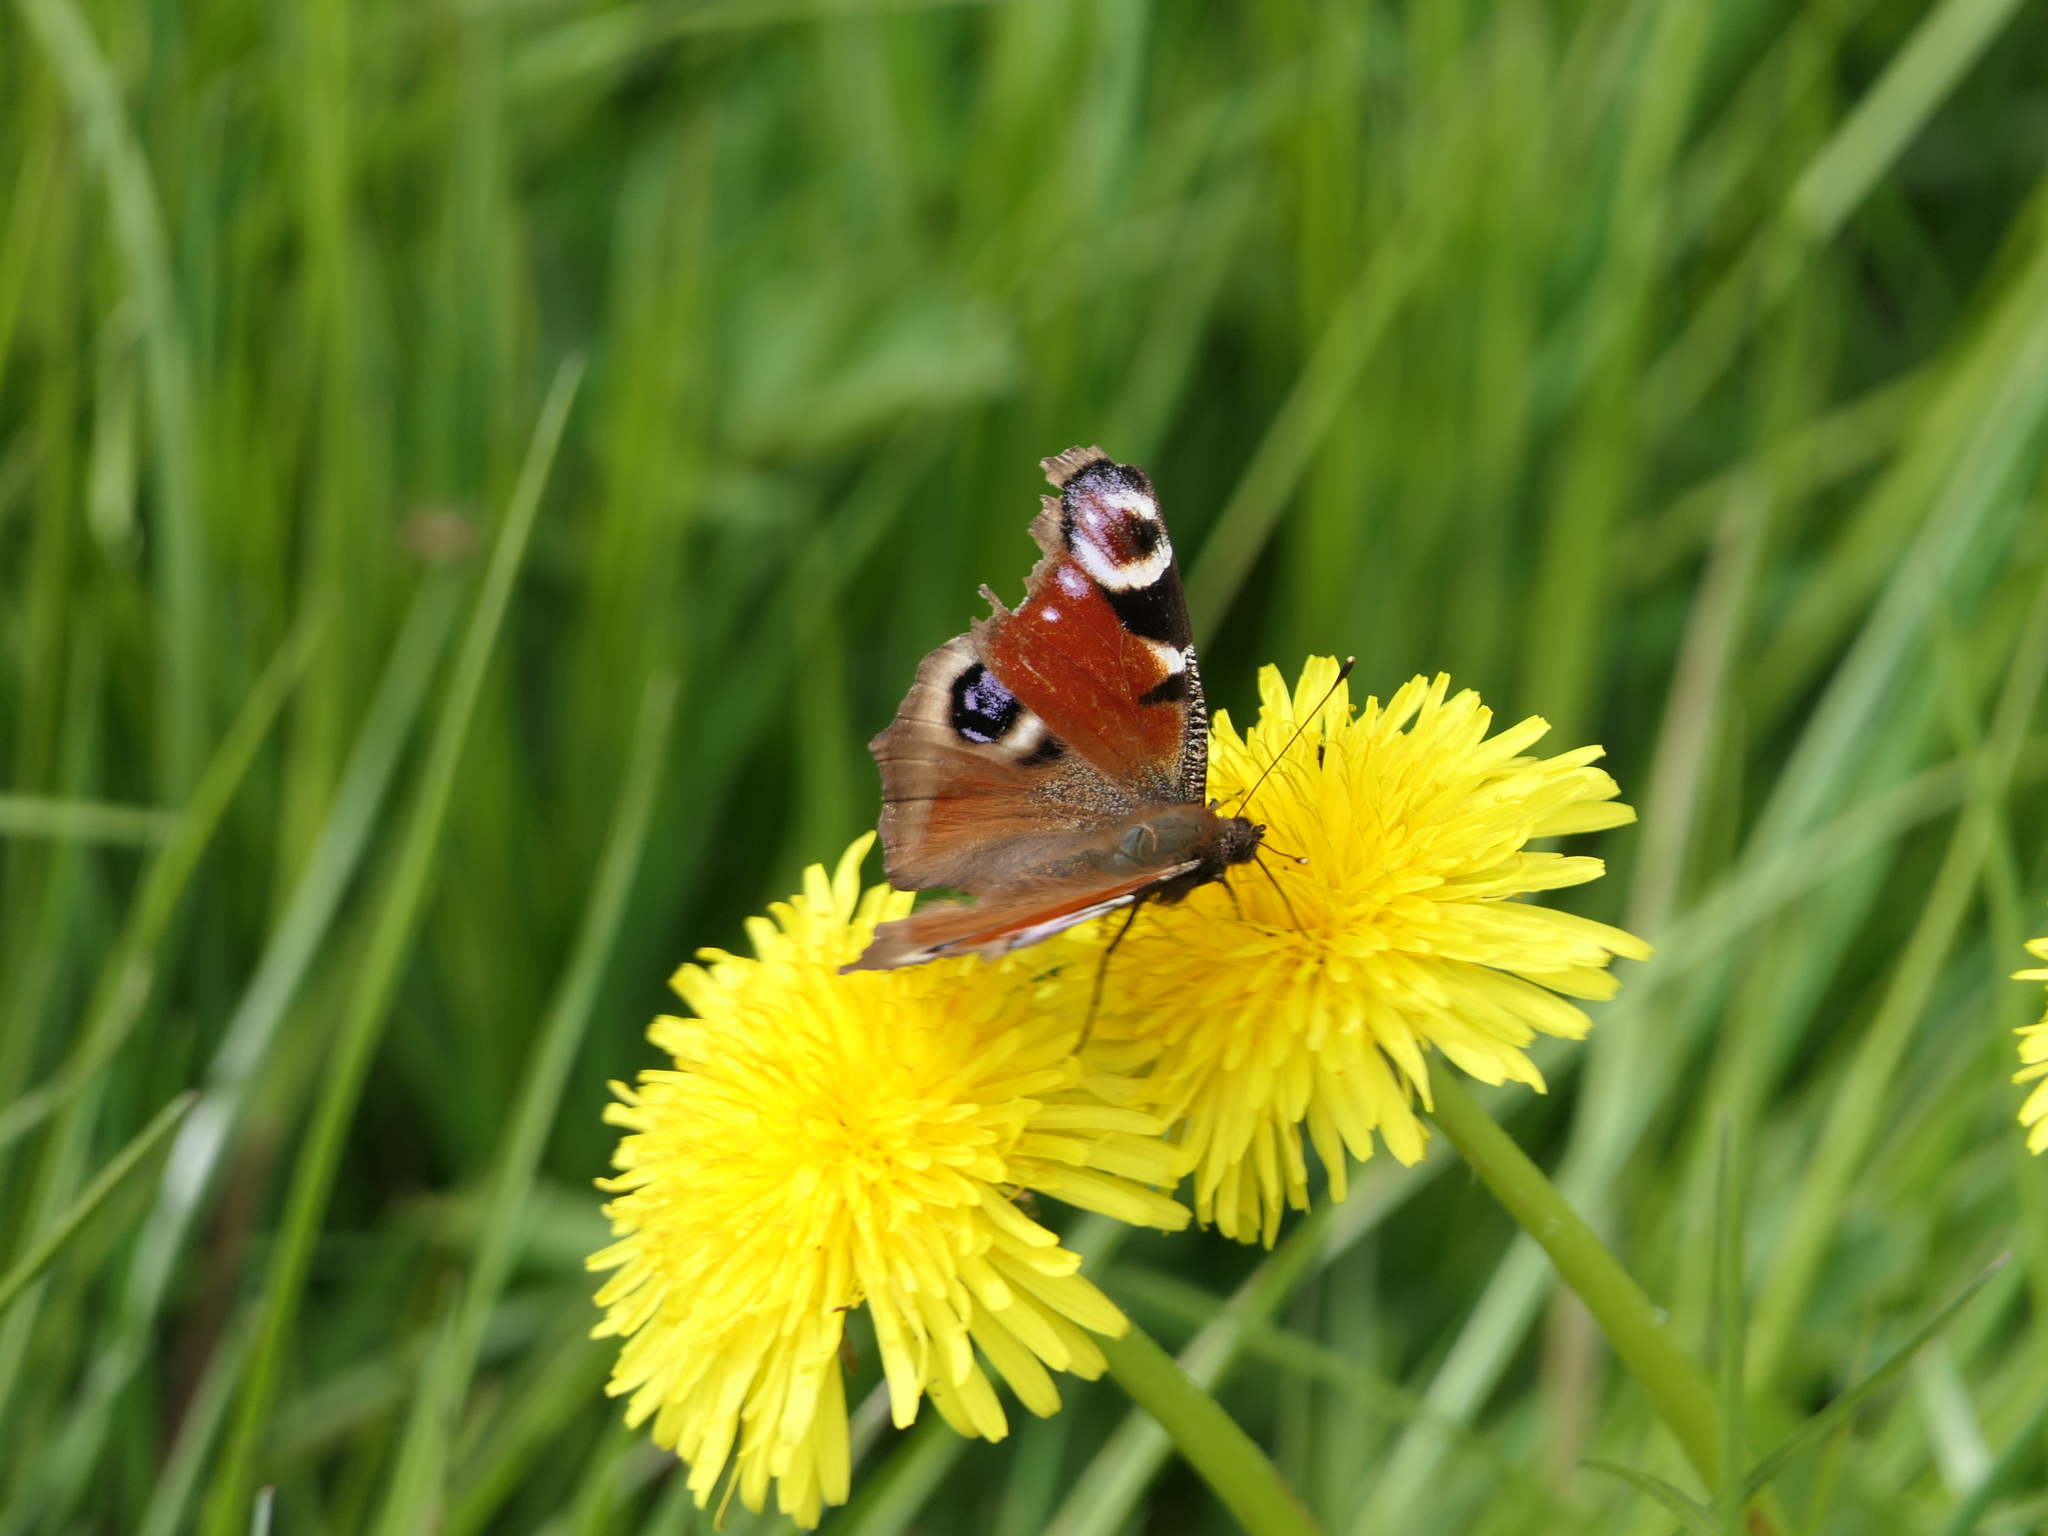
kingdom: Animalia
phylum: Arthropoda
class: Insecta
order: Lepidoptera
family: Nymphalidae
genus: Aglais
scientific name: Aglais io
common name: Peacock
